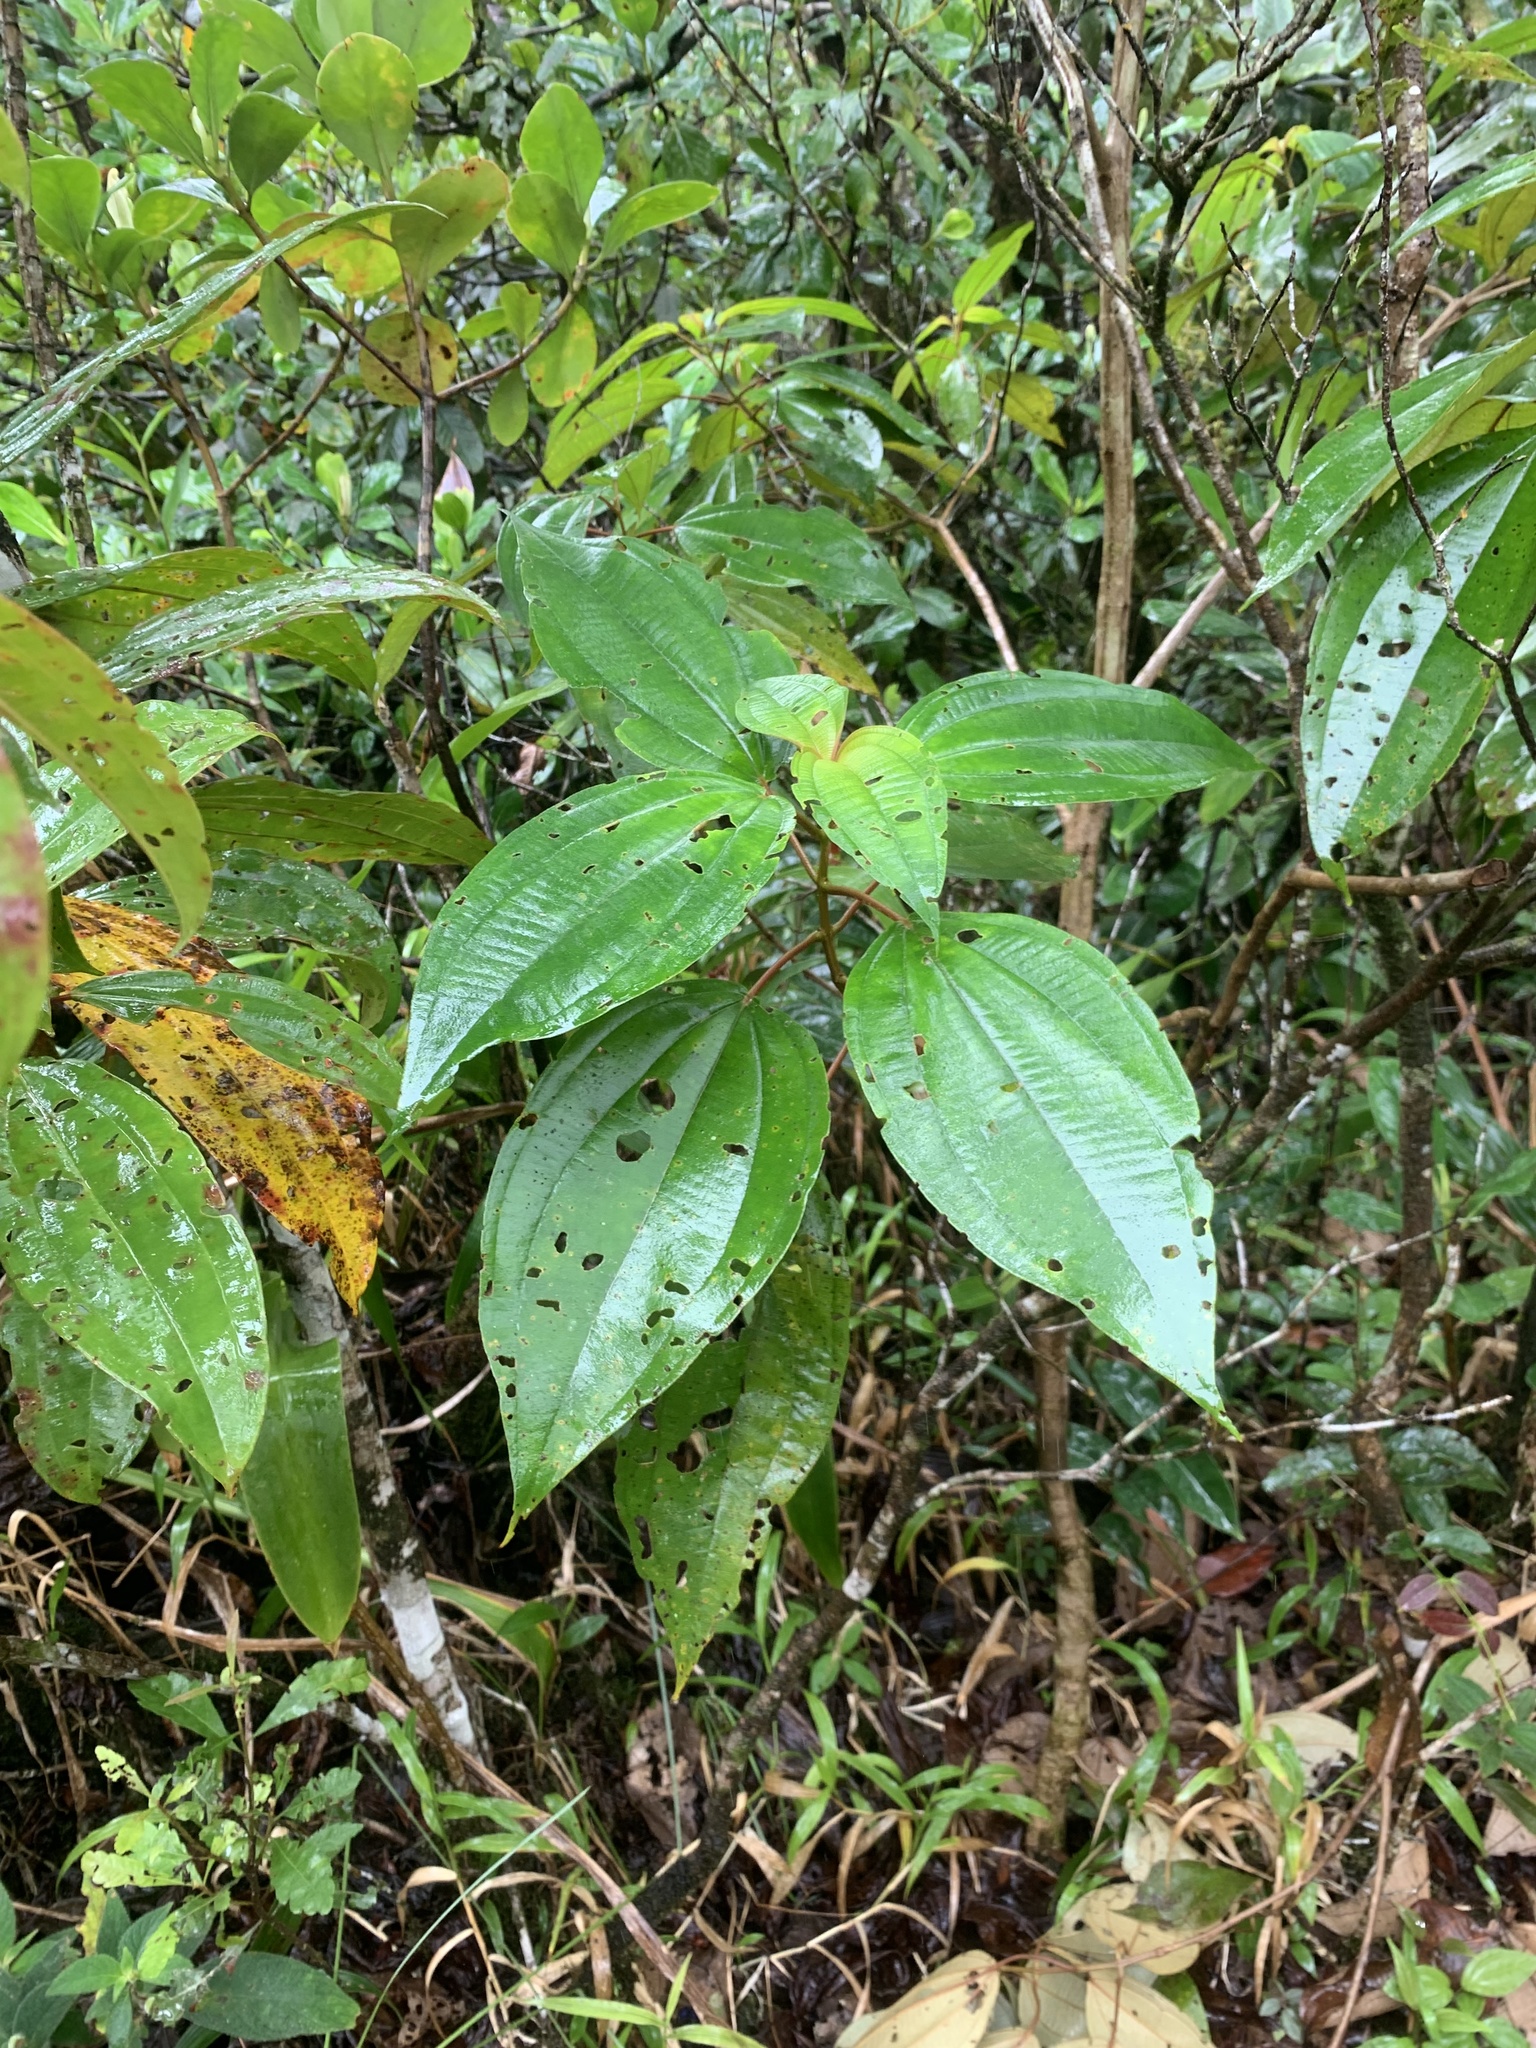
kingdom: Plantae
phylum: Tracheophyta
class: Magnoliopsida
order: Myrtales
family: Melastomataceae
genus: Miconia
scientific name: Miconia donaeana
